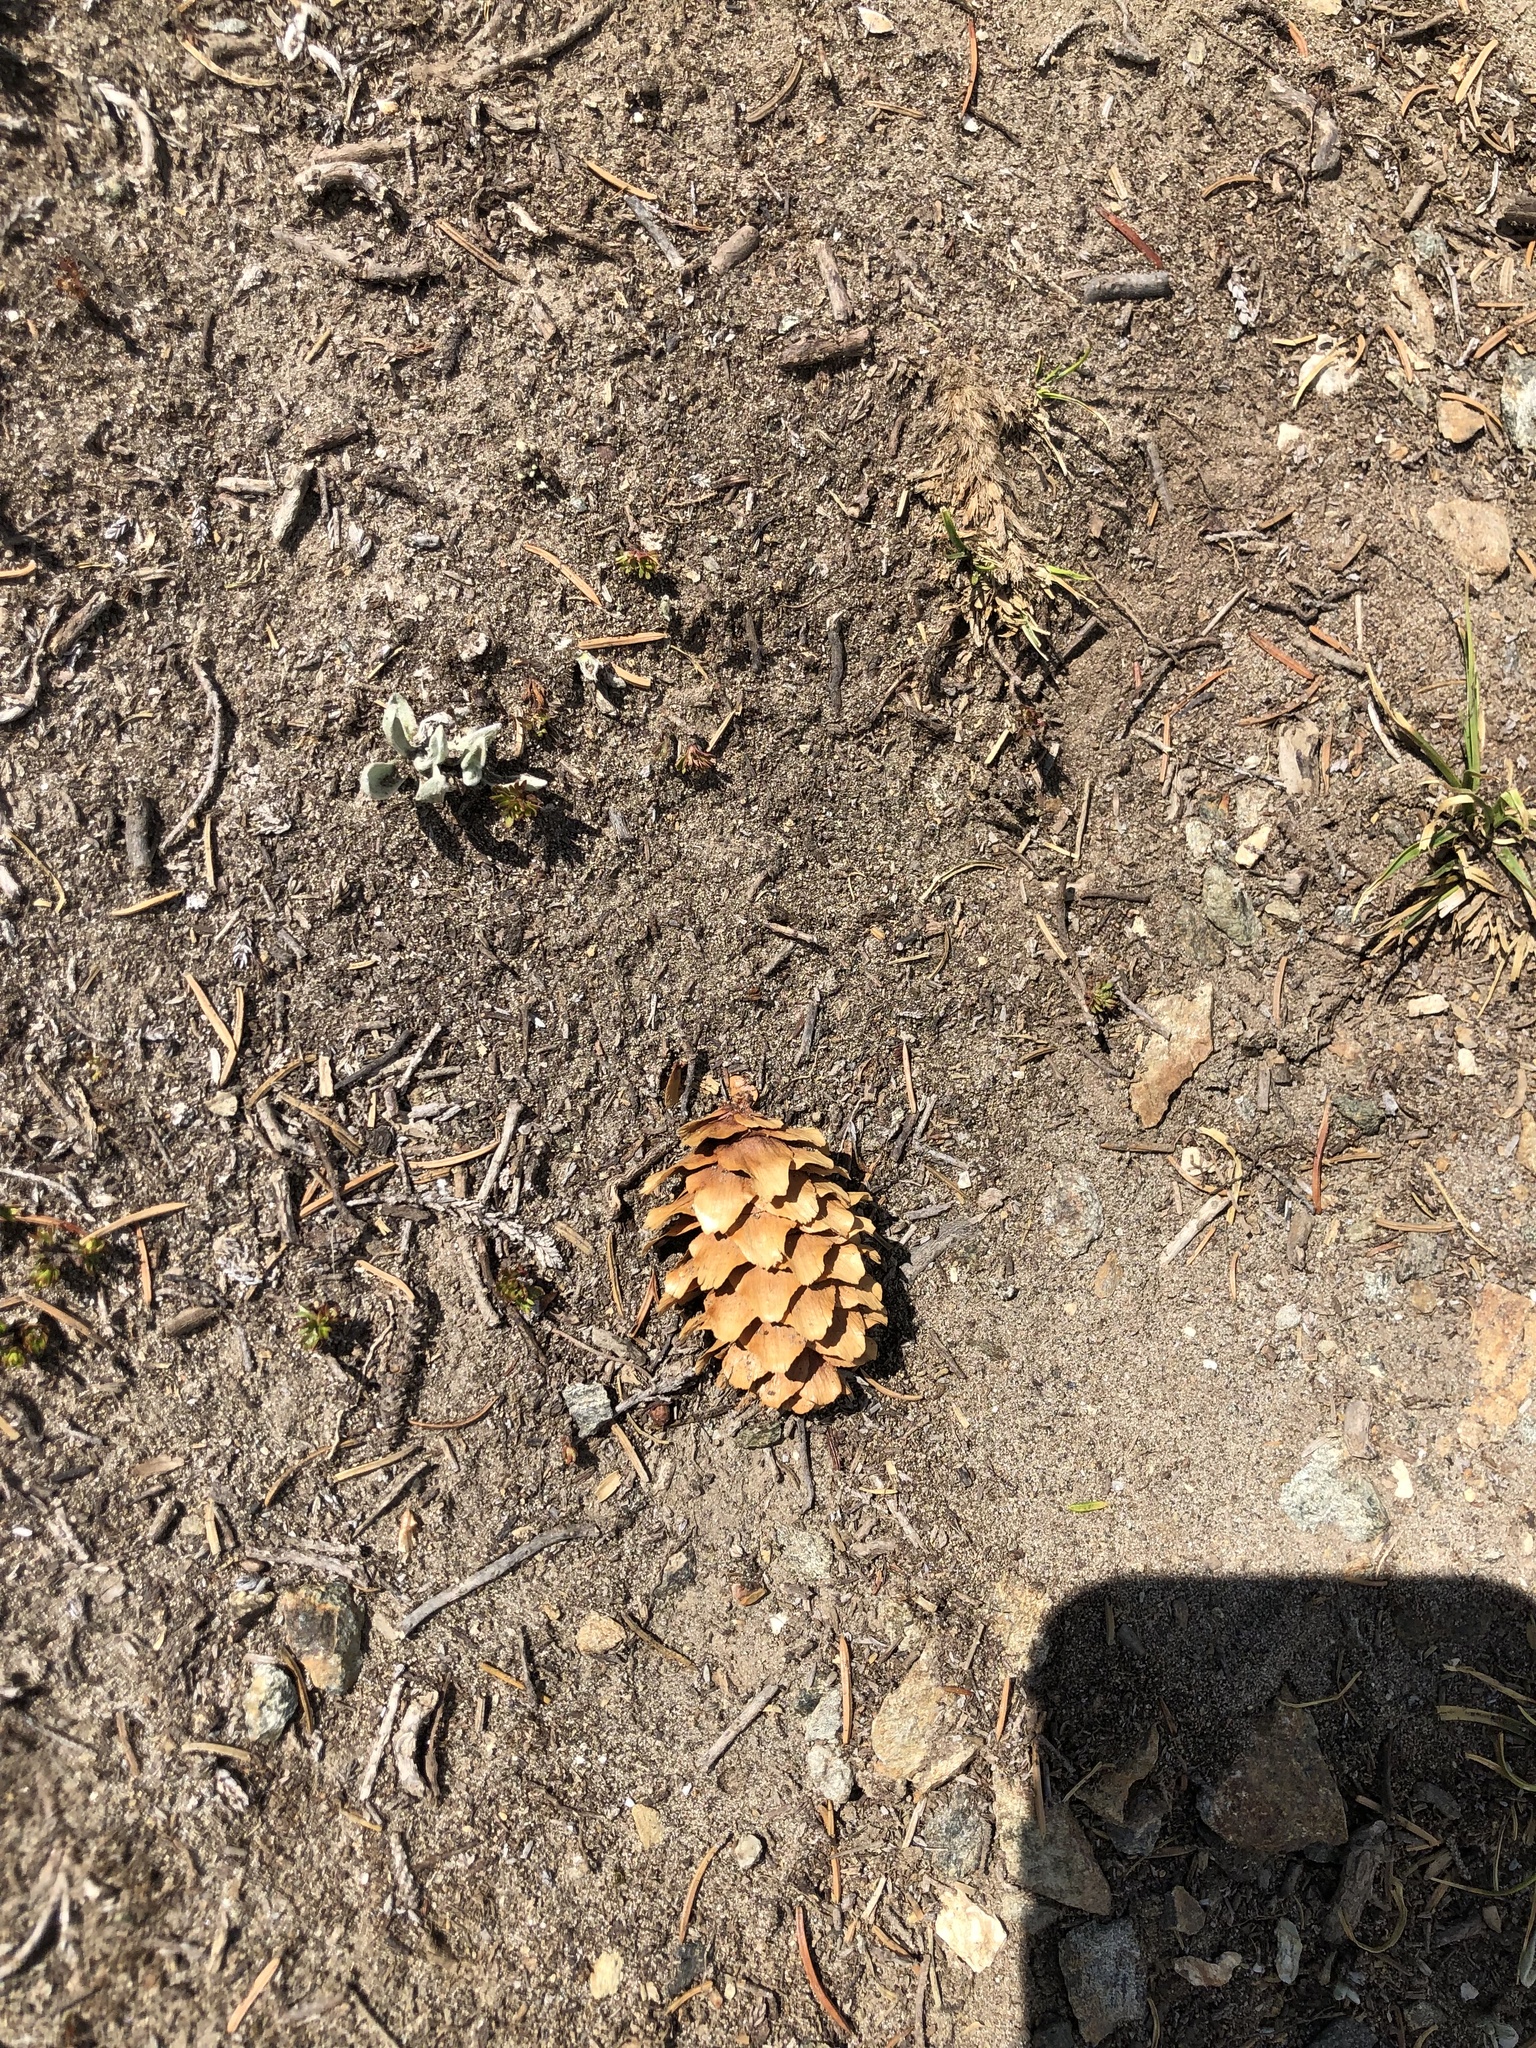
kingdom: Plantae
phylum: Tracheophyta
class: Pinopsida
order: Pinales
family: Pinaceae
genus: Picea
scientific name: Picea engelmannii
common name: Engelmann spruce
